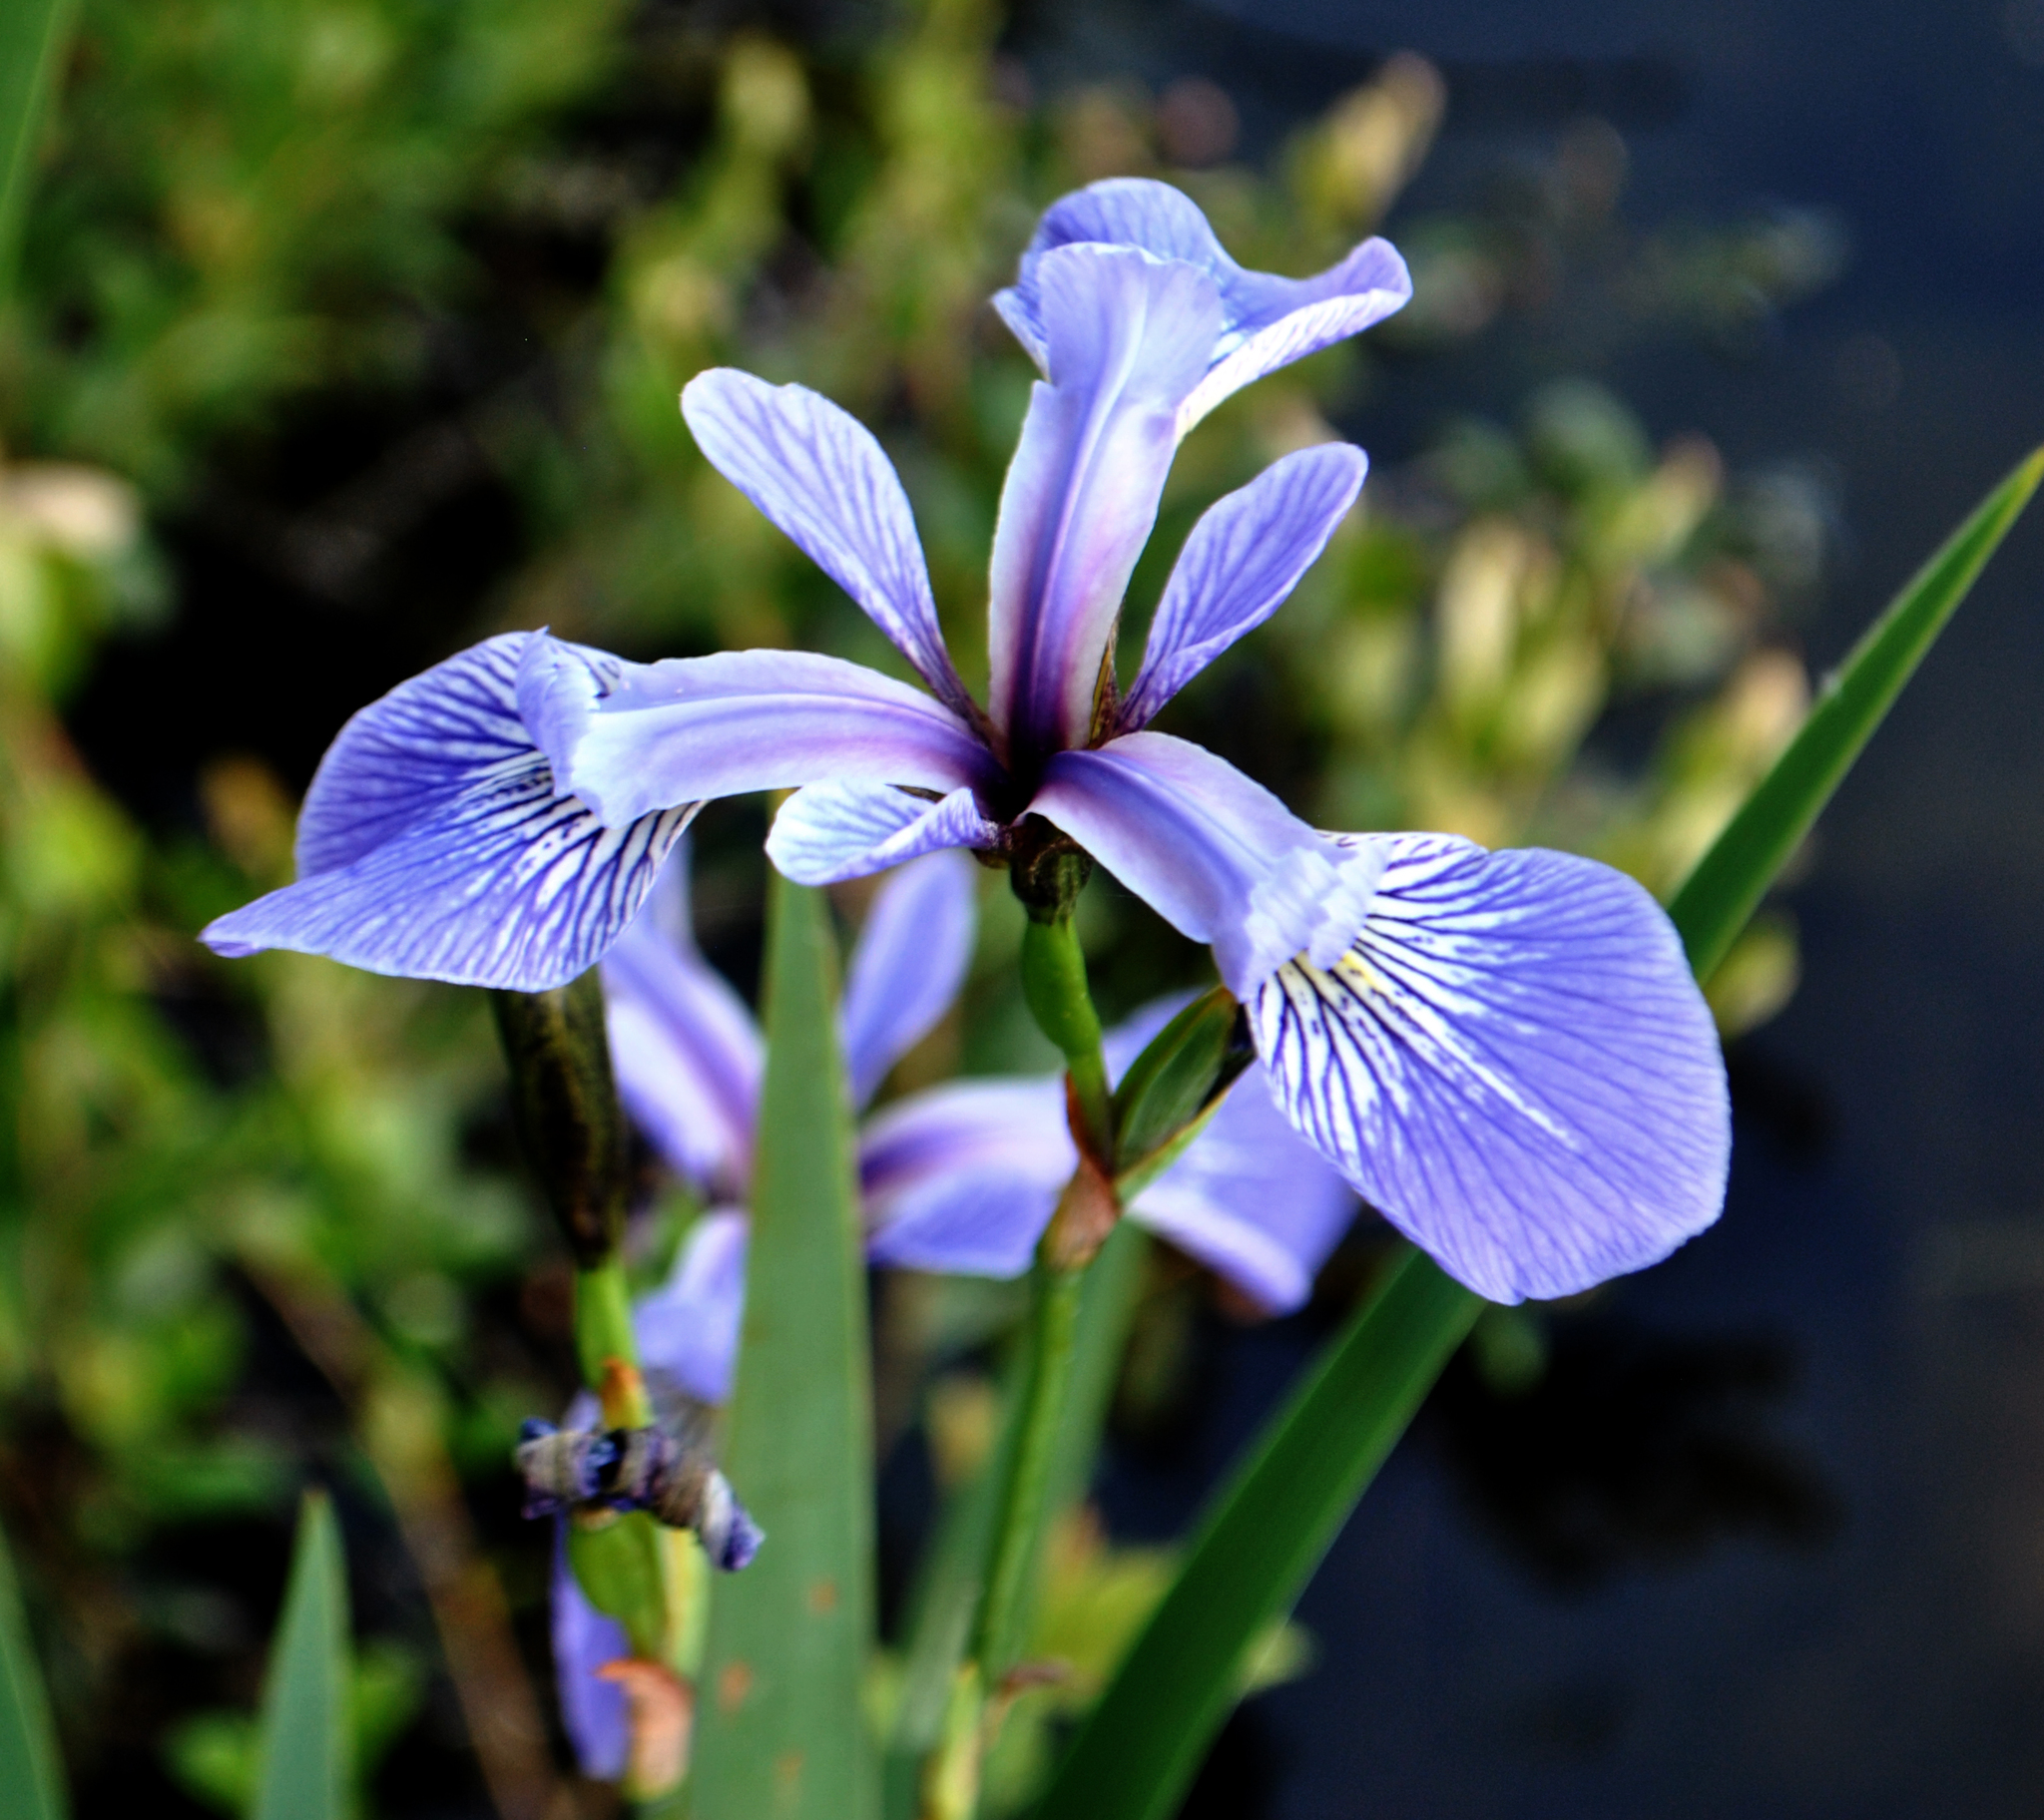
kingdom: Plantae
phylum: Tracheophyta
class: Liliopsida
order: Asparagales
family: Iridaceae
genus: Iris
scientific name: Iris versicolor
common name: Purple iris
